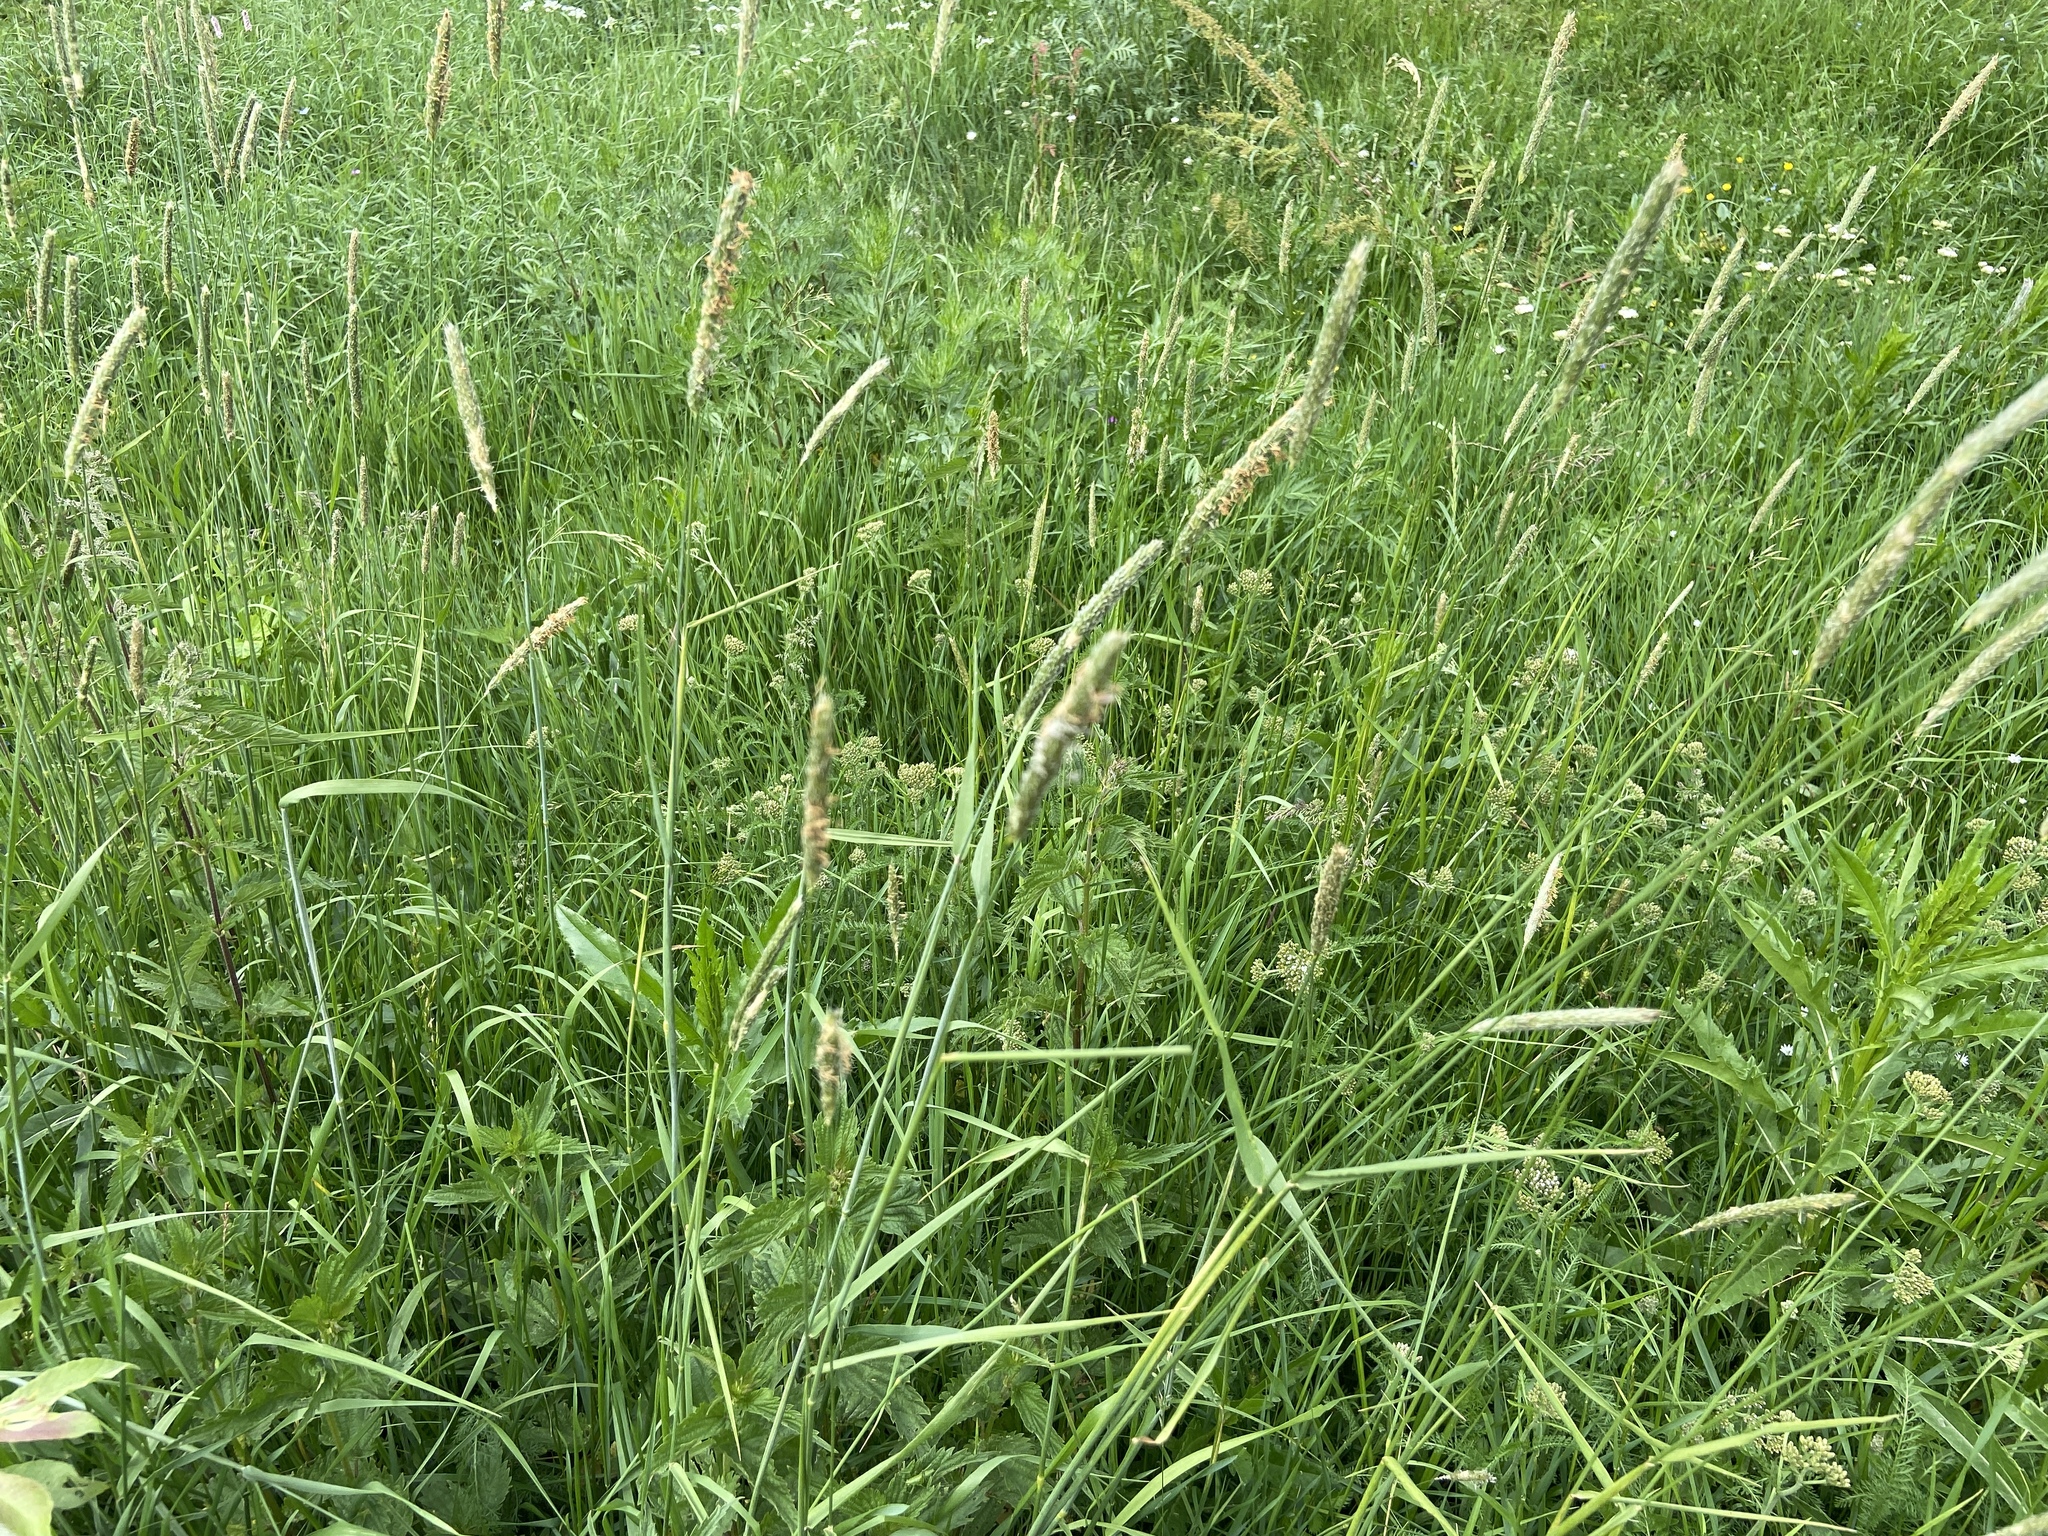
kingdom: Plantae
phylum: Tracheophyta
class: Liliopsida
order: Poales
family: Poaceae
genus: Alopecurus
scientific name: Alopecurus pratensis
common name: Meadow foxtail
